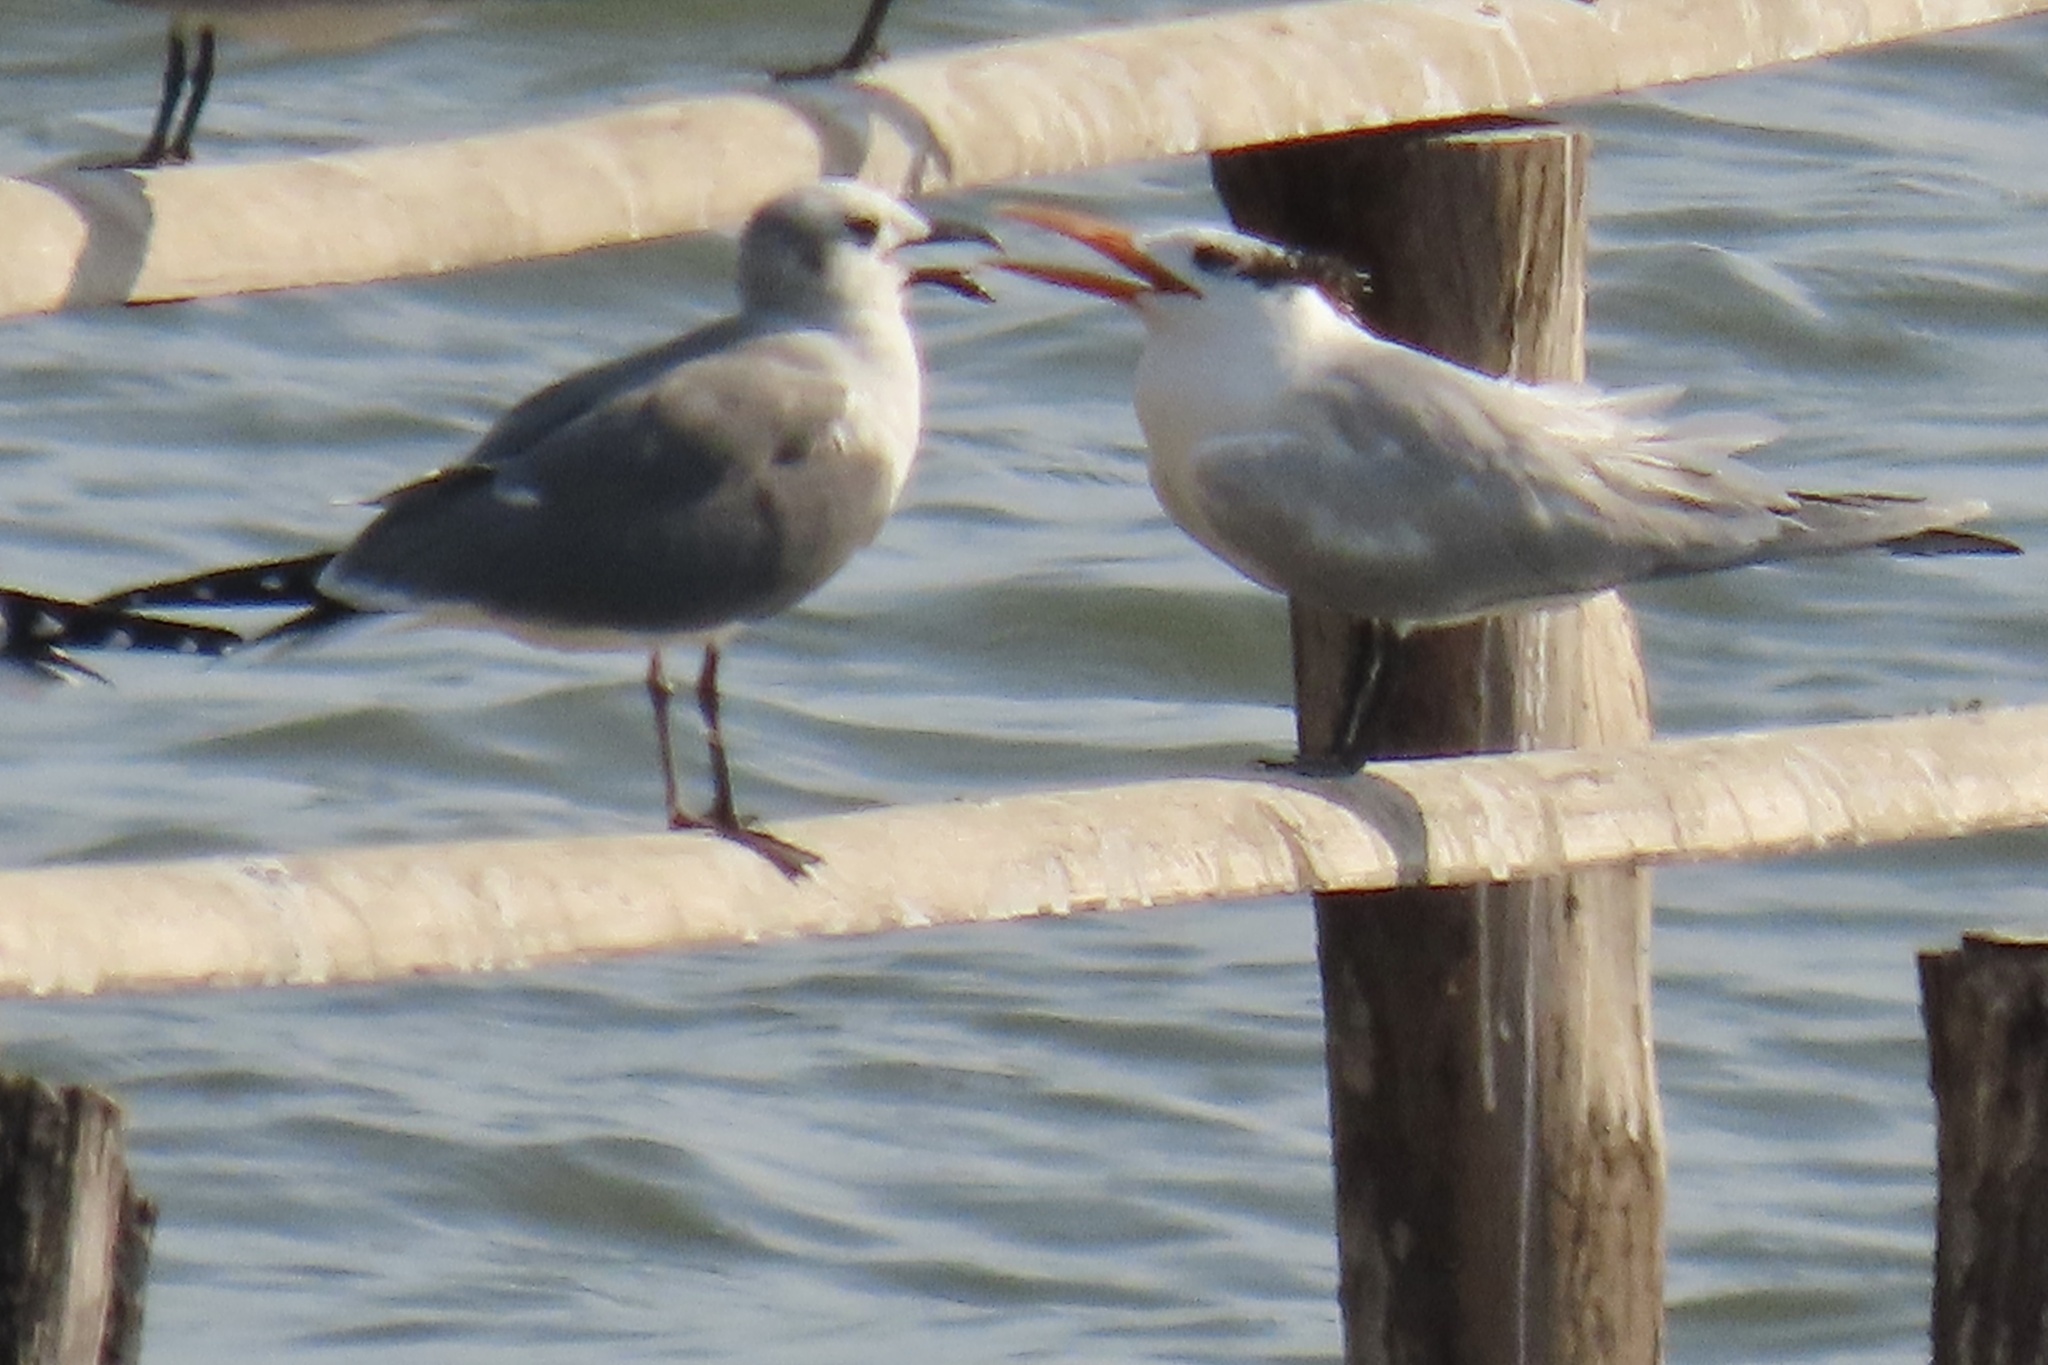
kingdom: Animalia
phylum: Chordata
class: Aves
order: Charadriiformes
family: Laridae
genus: Leucophaeus
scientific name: Leucophaeus atricilla
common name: Laughing gull
